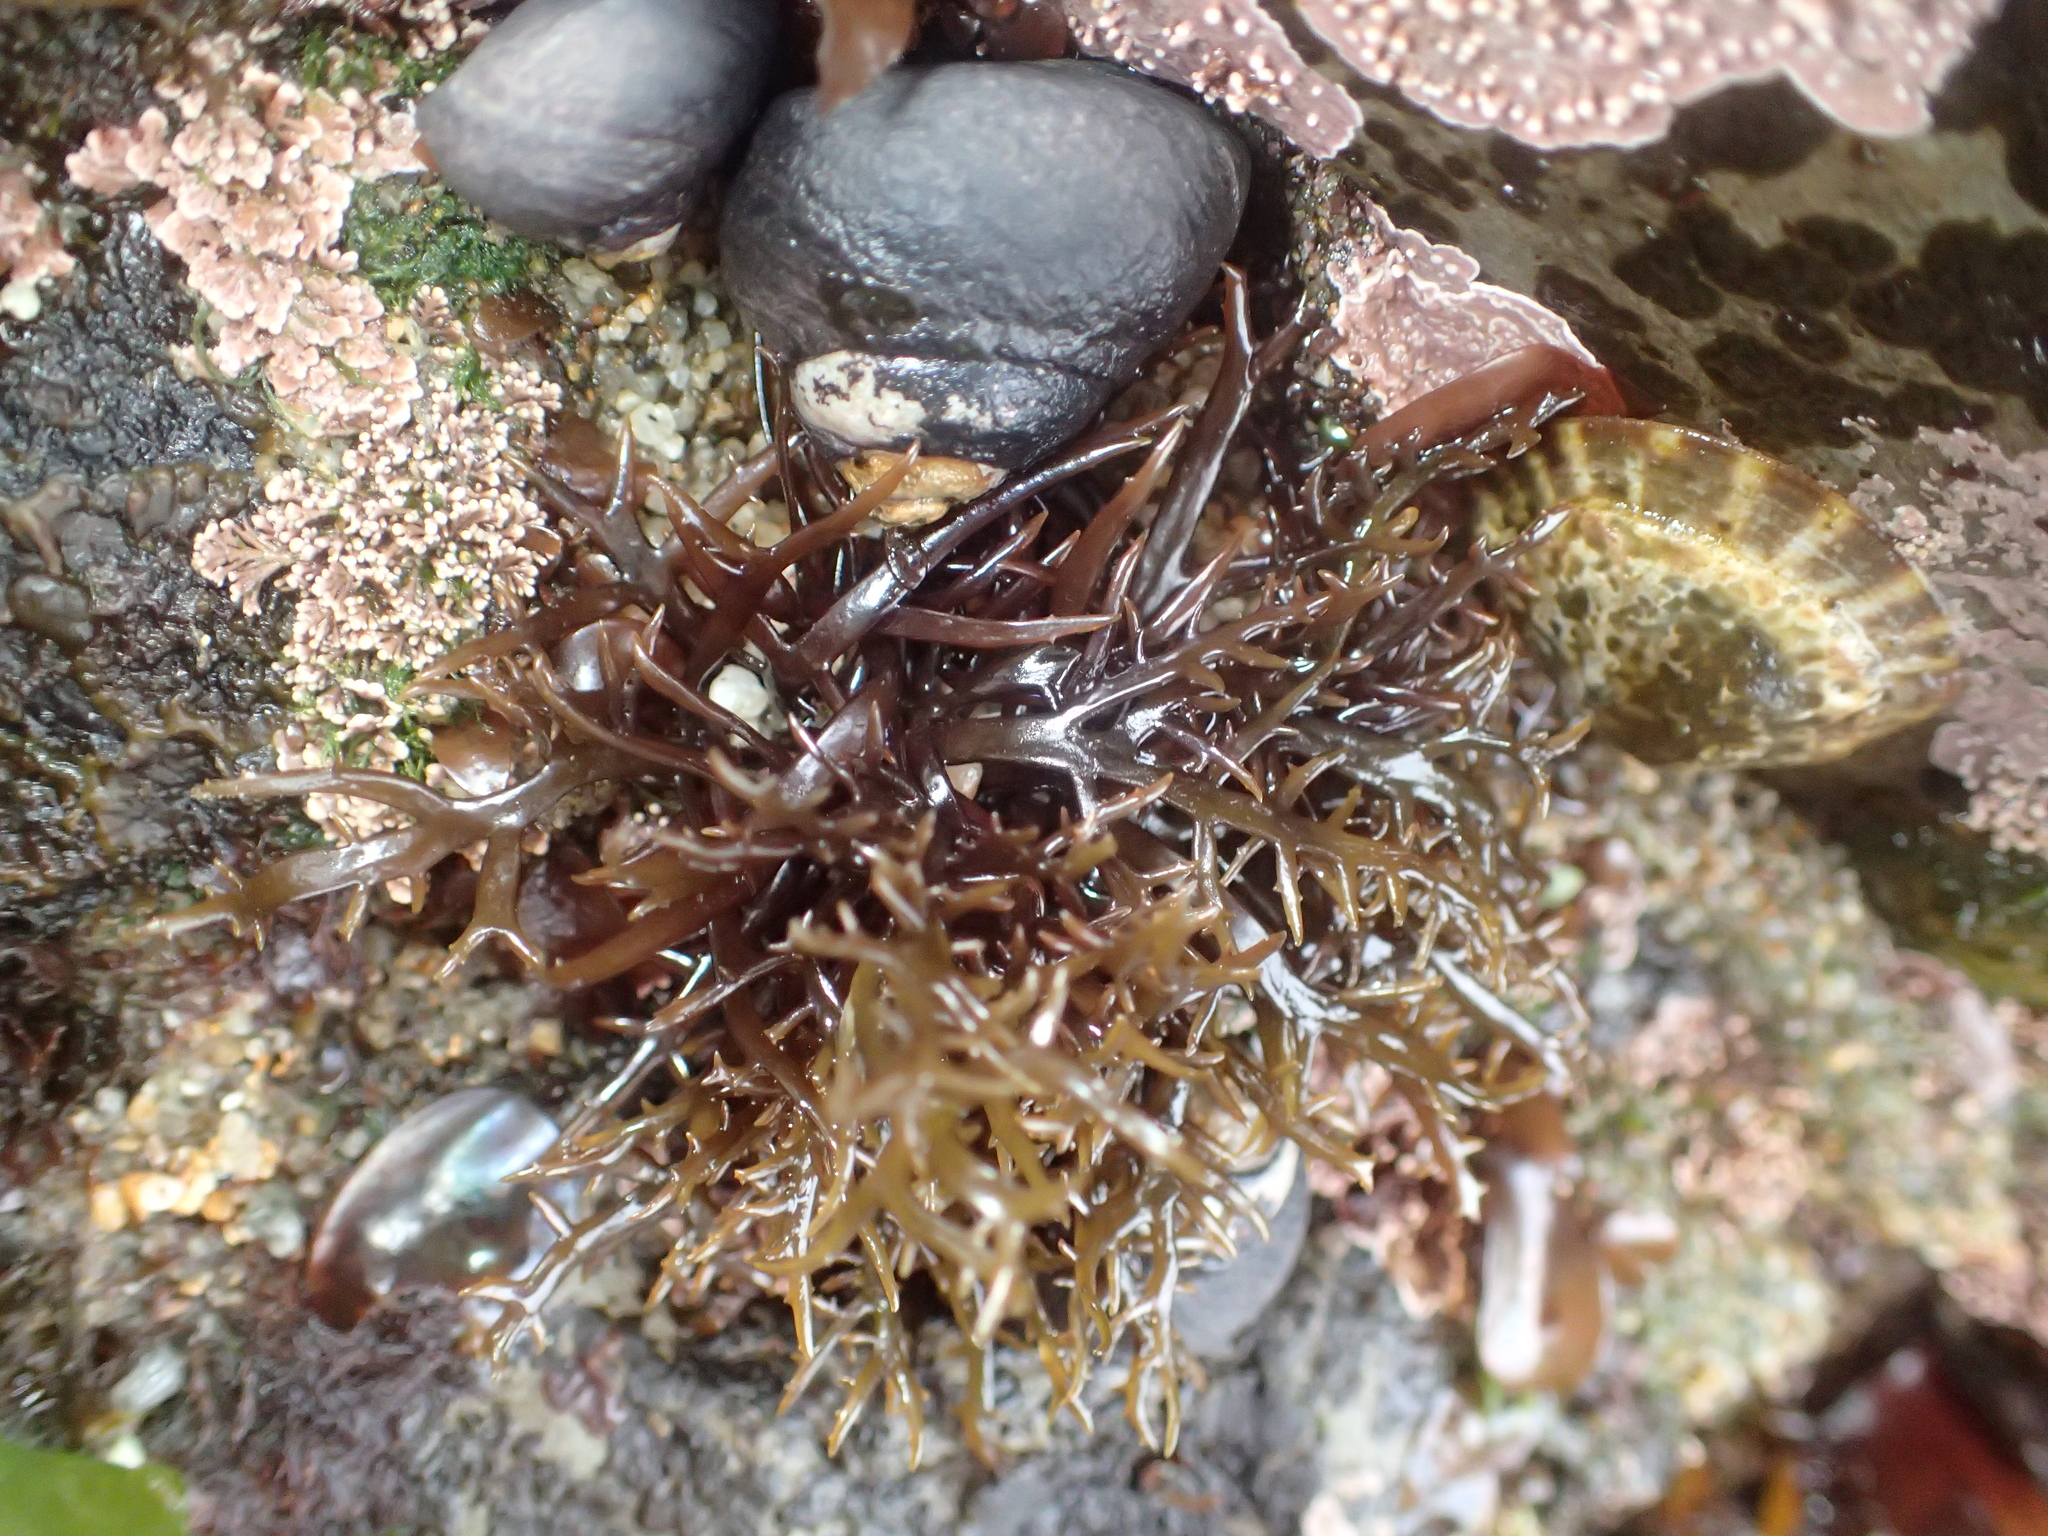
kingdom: Plantae
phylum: Rhodophyta
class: Florideophyceae
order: Gigartinales
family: Gigartinaceae
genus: Chondracanthus
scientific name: Chondracanthus canaliculatus
